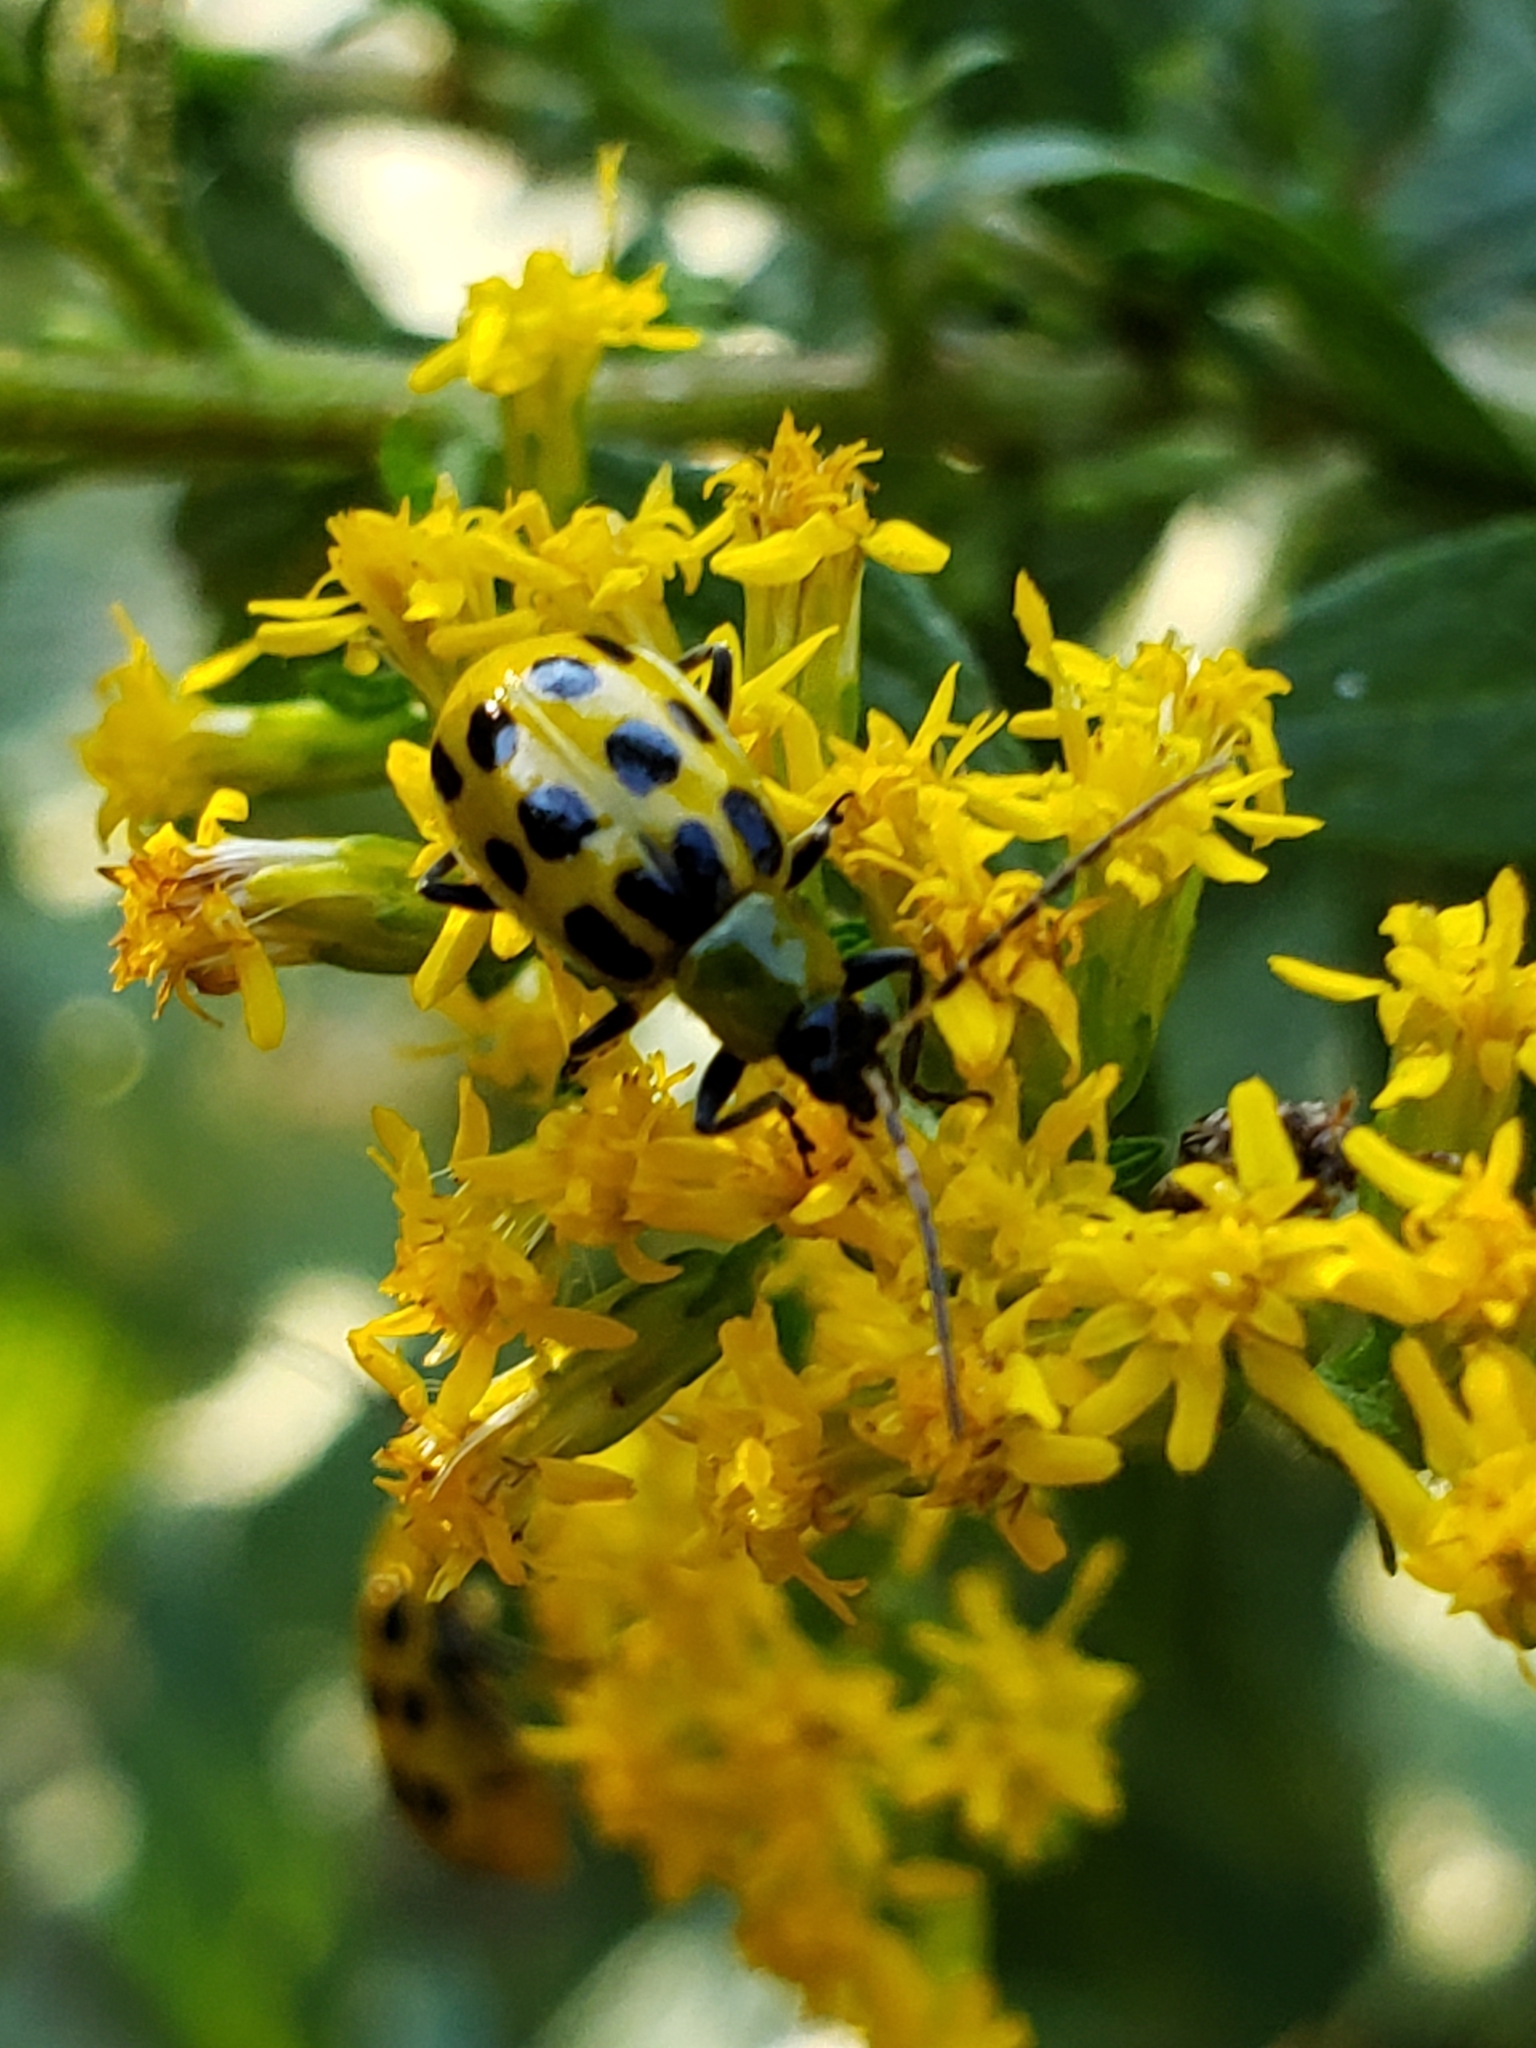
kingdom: Animalia
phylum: Arthropoda
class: Insecta
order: Coleoptera
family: Chrysomelidae
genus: Diabrotica
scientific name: Diabrotica undecimpunctata
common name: Spotted cucumber beetle
